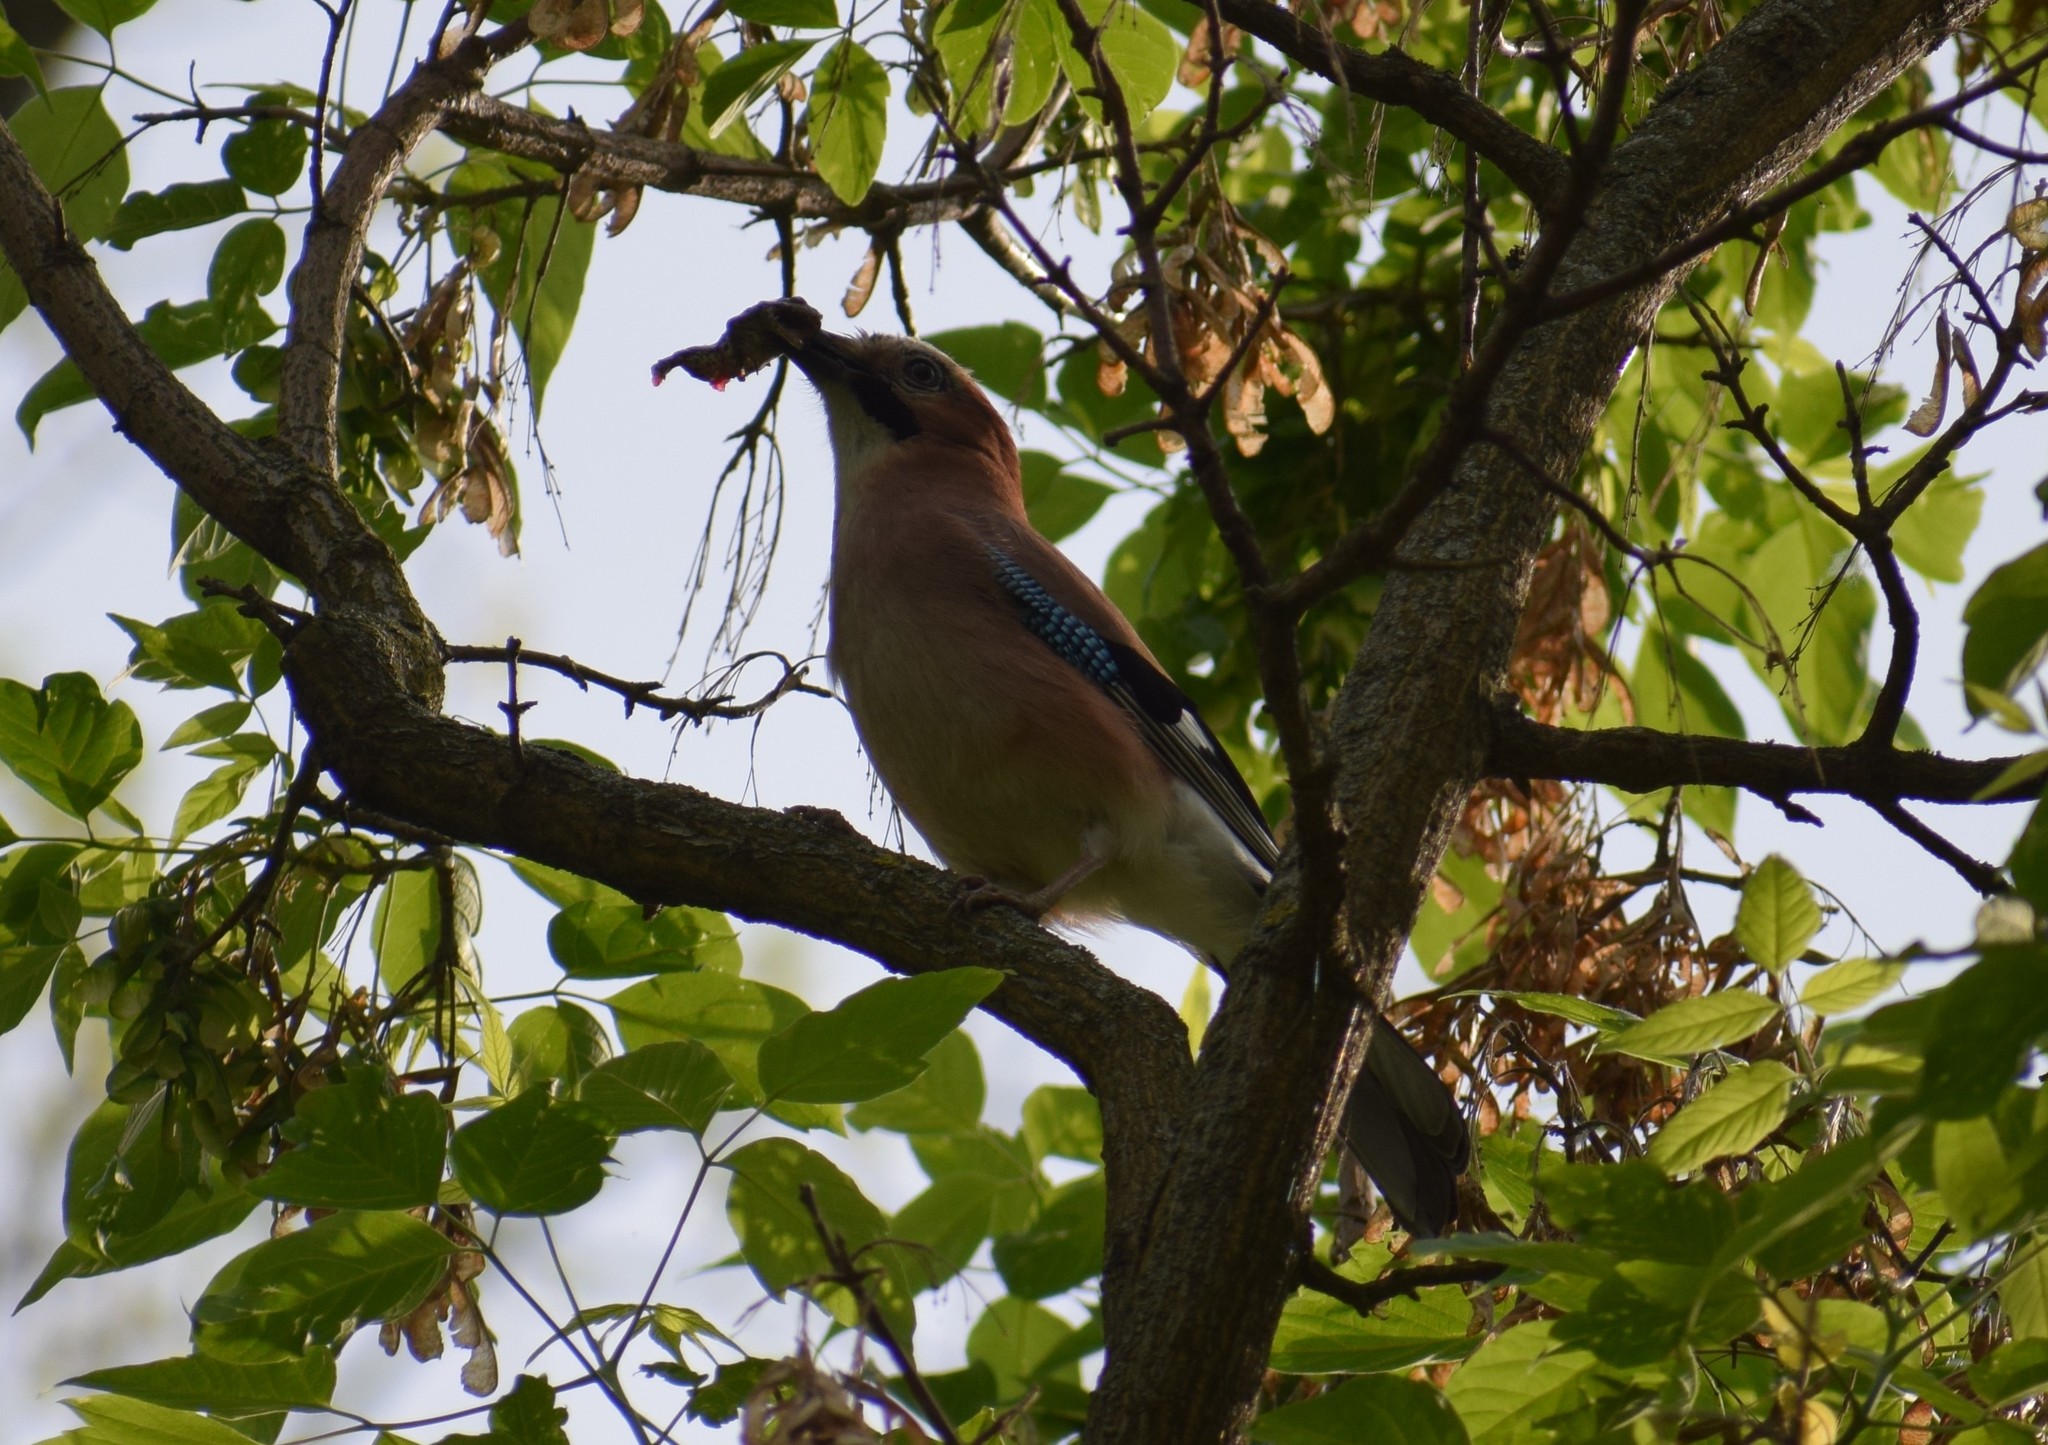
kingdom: Animalia
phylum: Chordata
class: Aves
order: Passeriformes
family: Corvidae
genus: Garrulus
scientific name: Garrulus glandarius
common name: Eurasian jay
